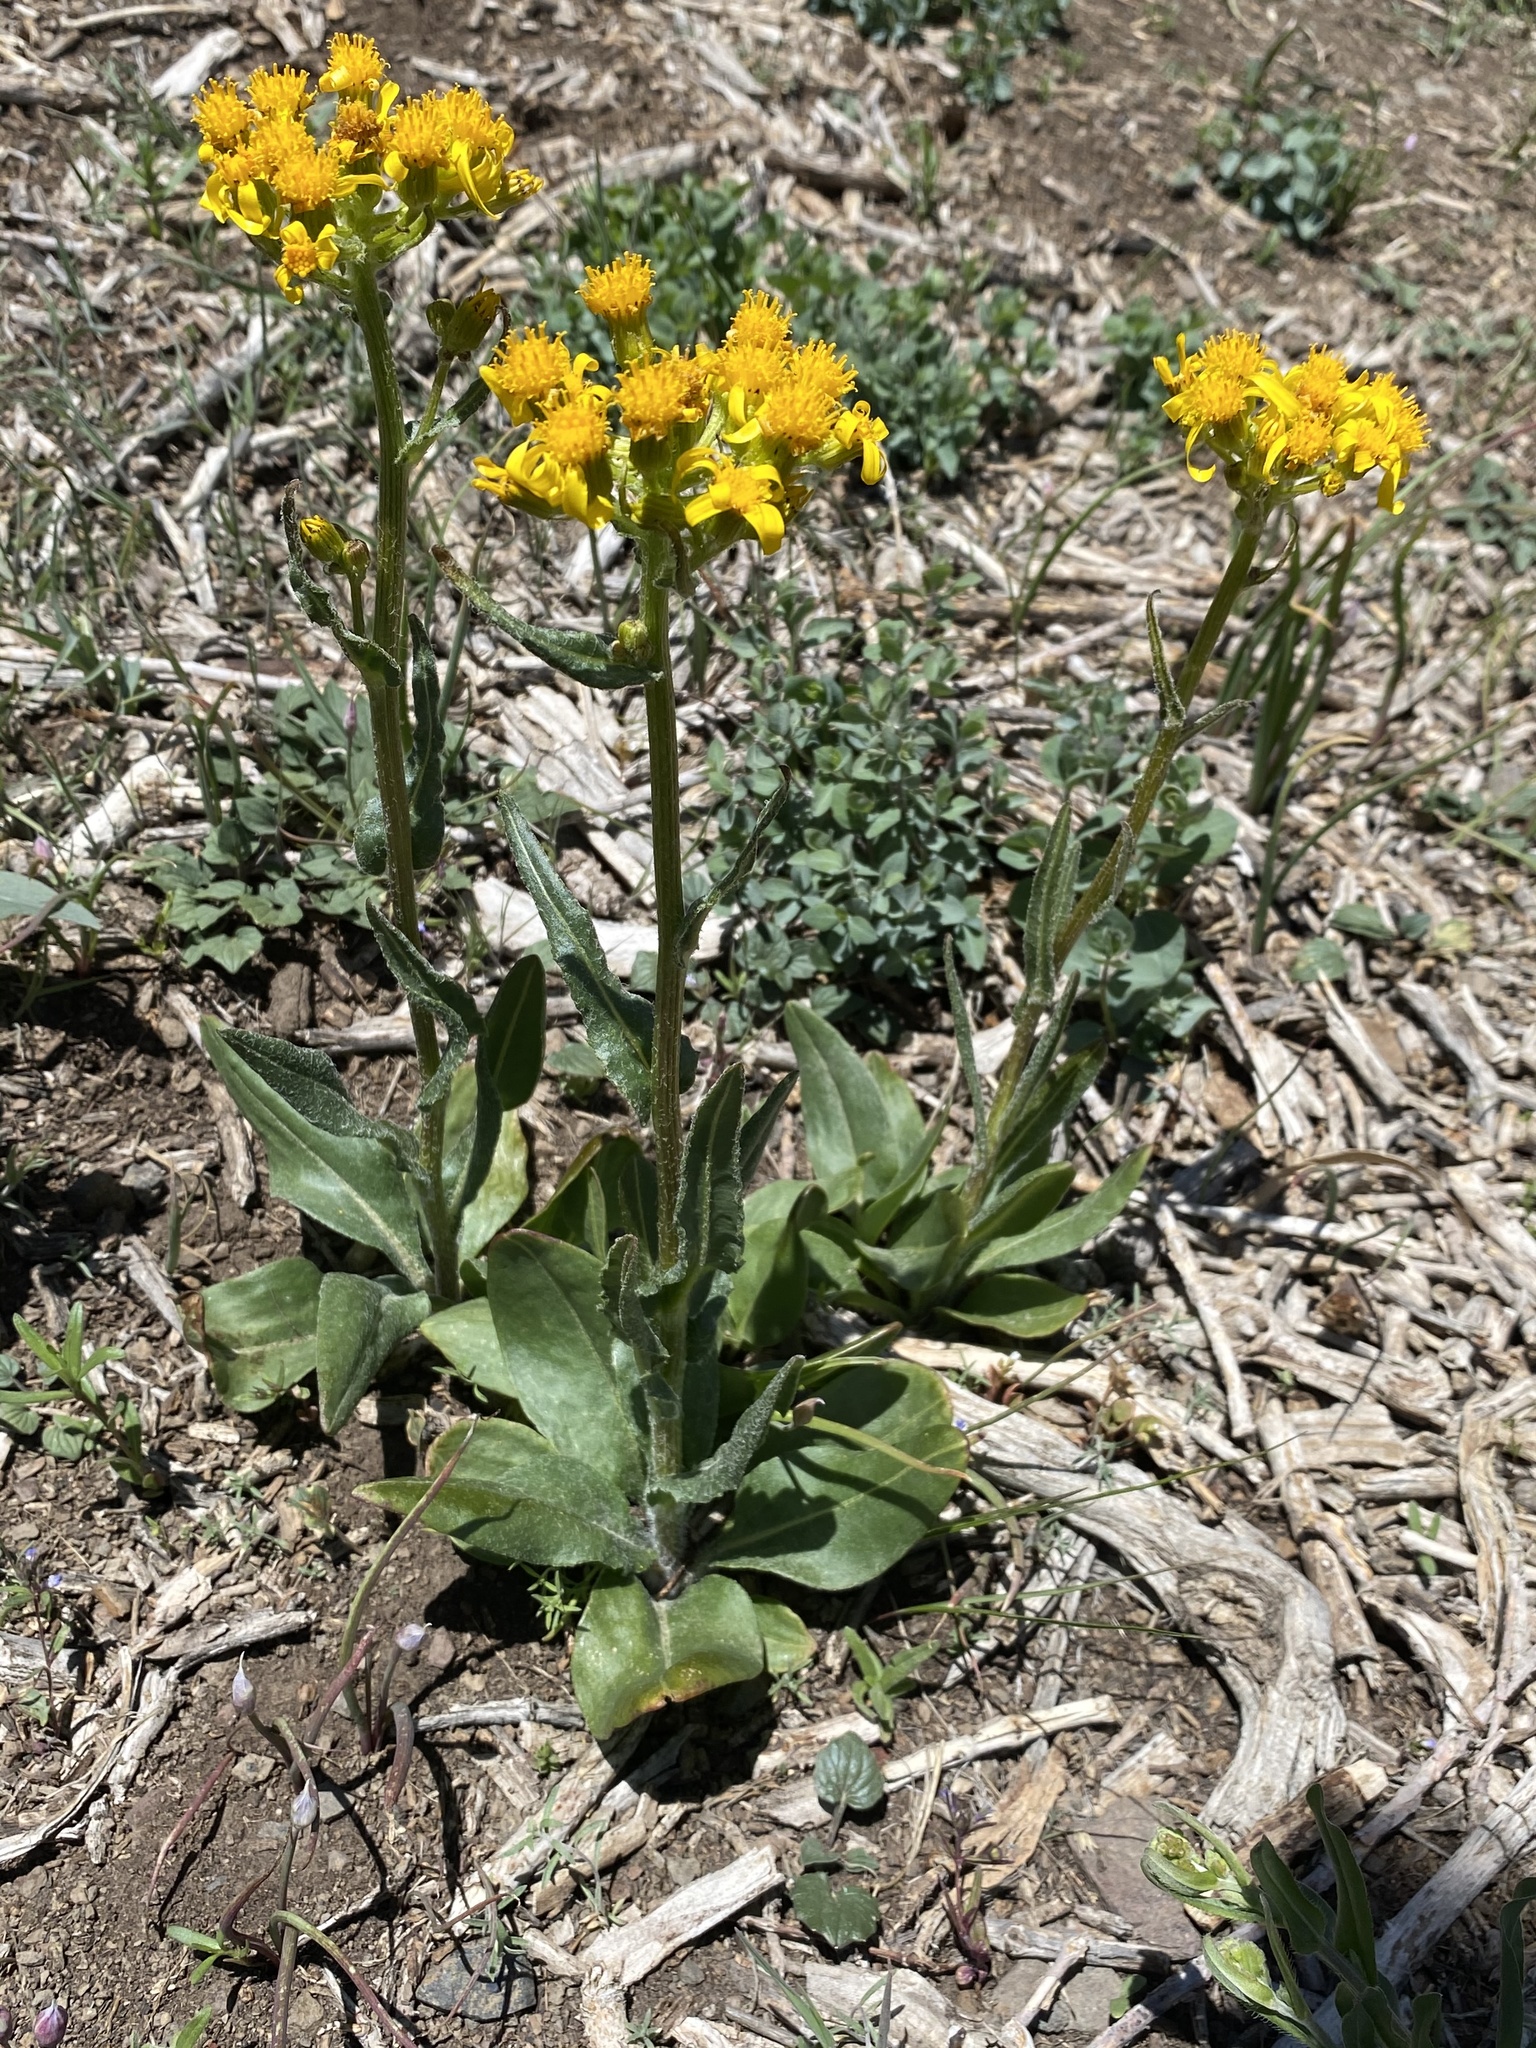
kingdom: Plantae
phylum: Tracheophyta
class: Magnoliopsida
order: Asterales
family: Asteraceae
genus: Senecio
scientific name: Senecio integerrimus
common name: Gaugeplant
